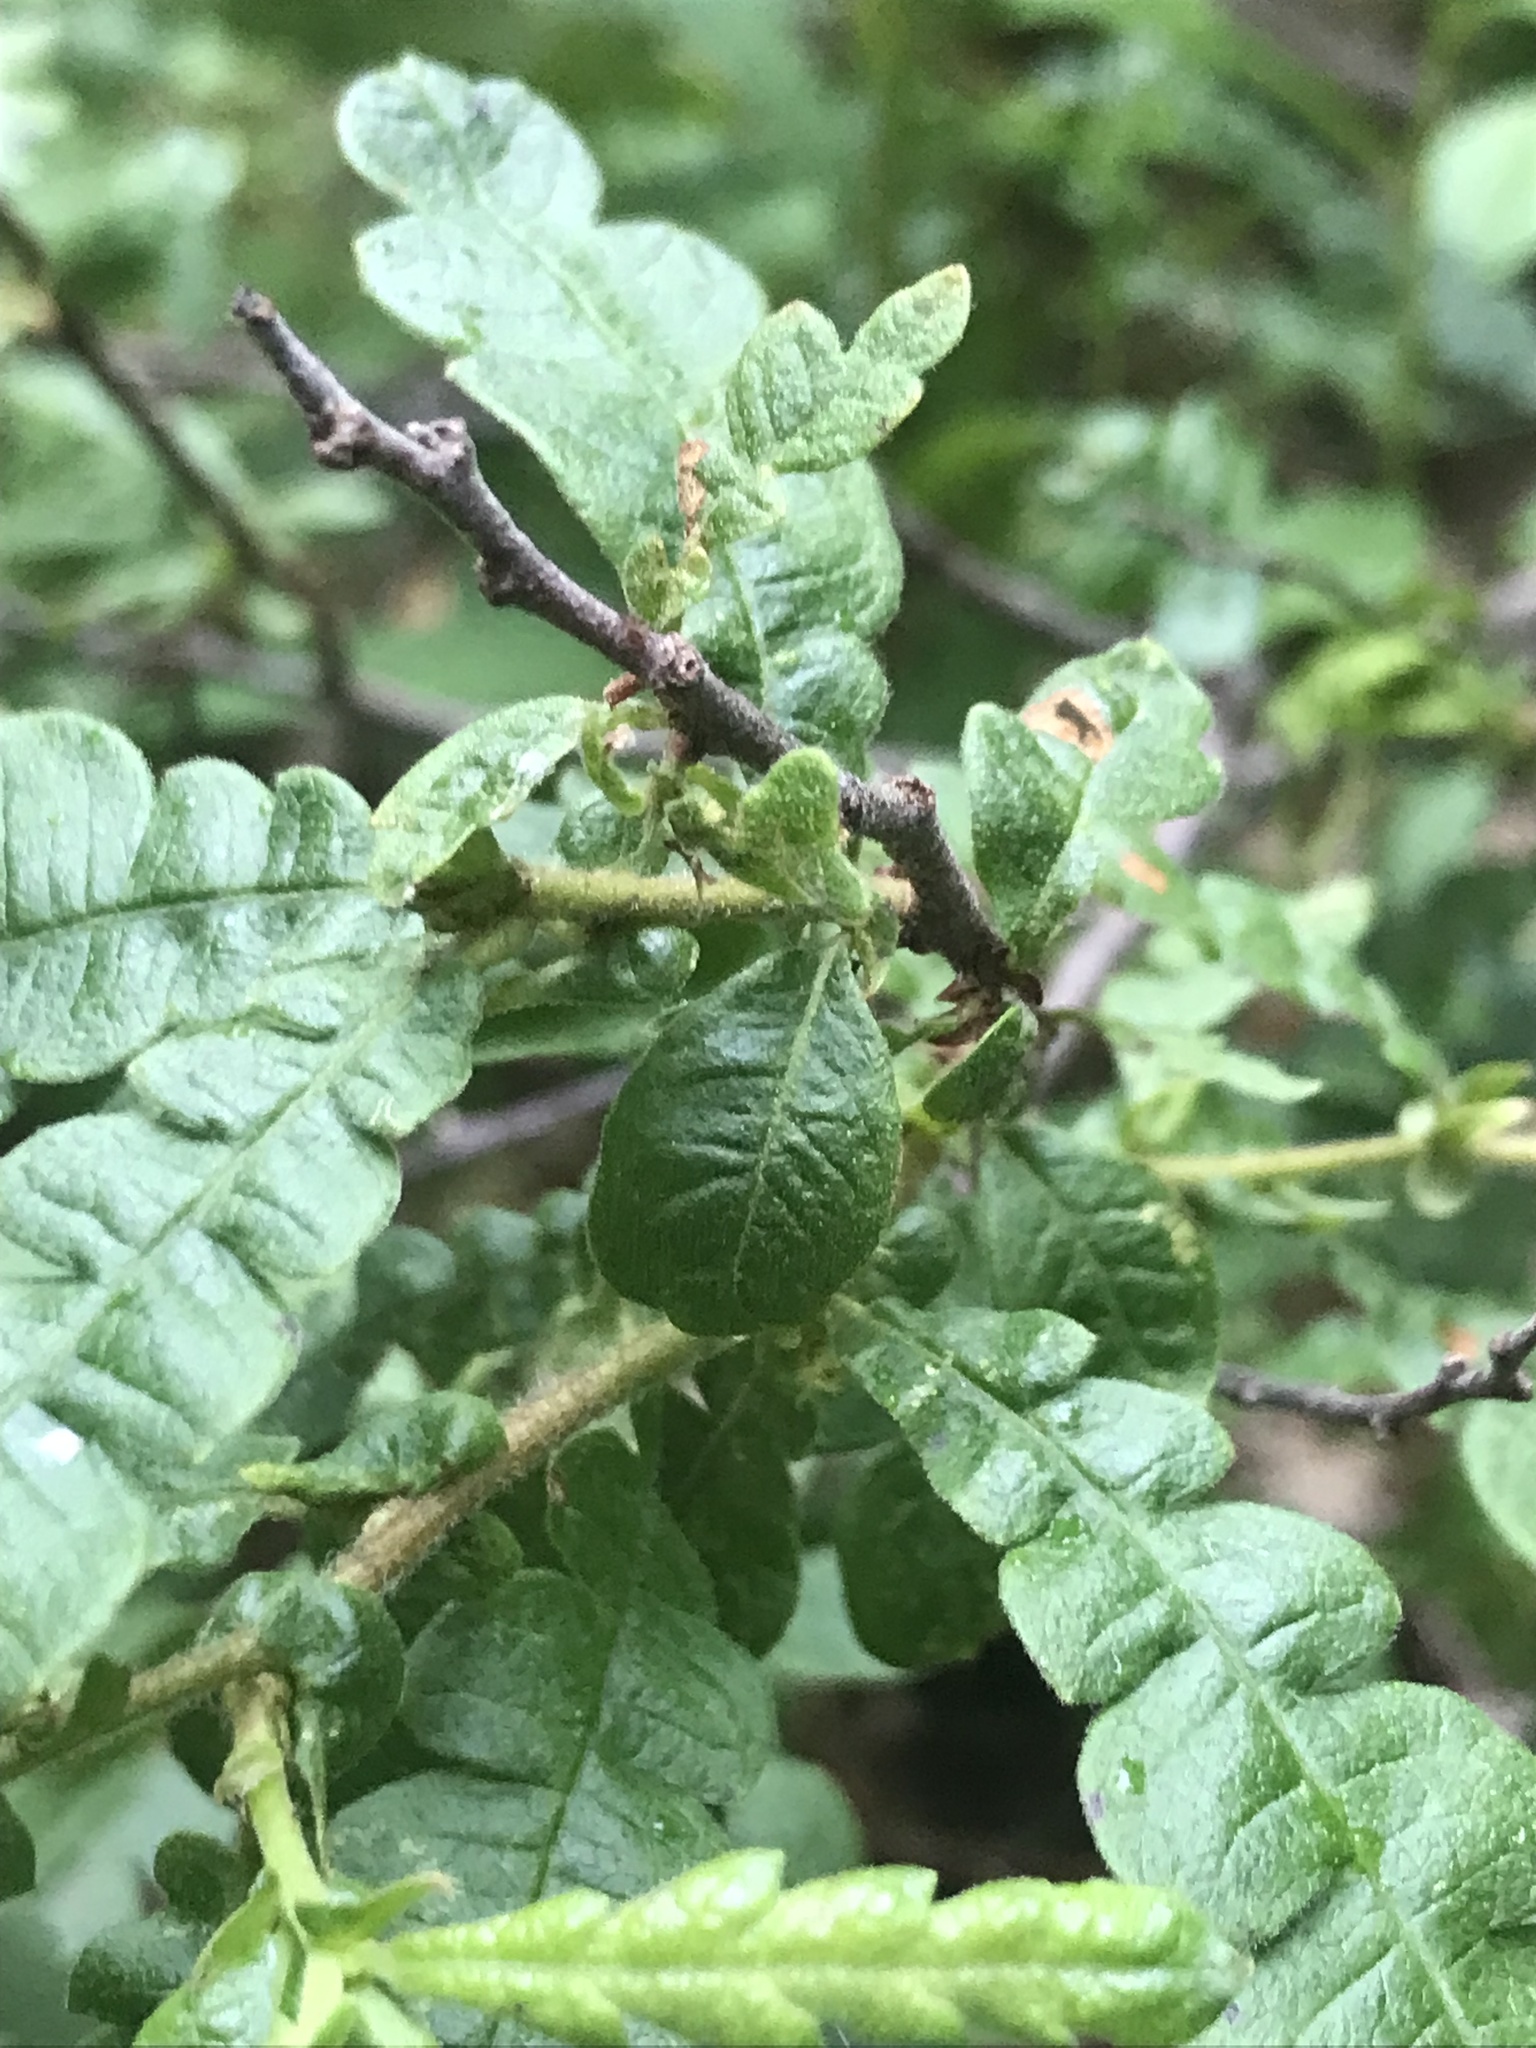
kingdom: Plantae
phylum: Tracheophyta
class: Magnoliopsida
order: Fagales
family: Myricaceae
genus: Comptonia
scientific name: Comptonia peregrina
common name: Sweet-fern
